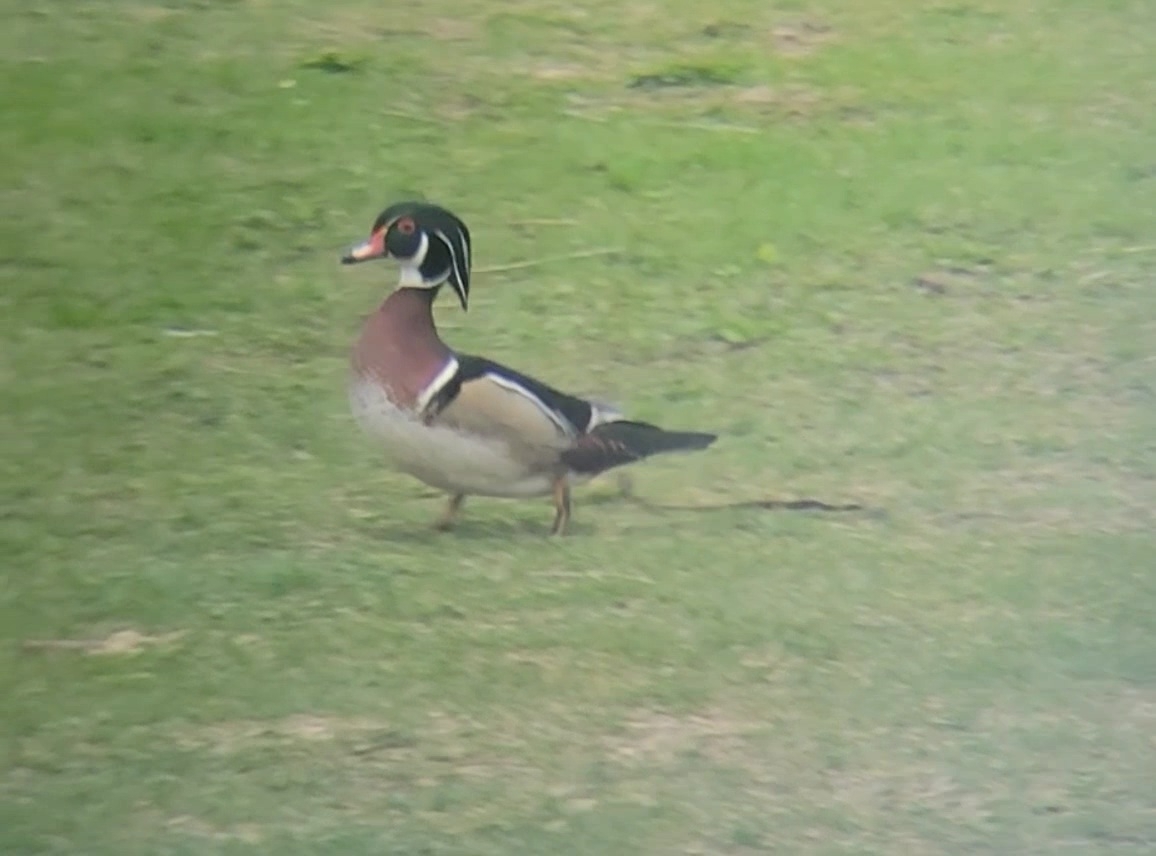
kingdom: Animalia
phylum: Chordata
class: Aves
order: Anseriformes
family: Anatidae
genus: Aix
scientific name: Aix sponsa
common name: Wood duck
